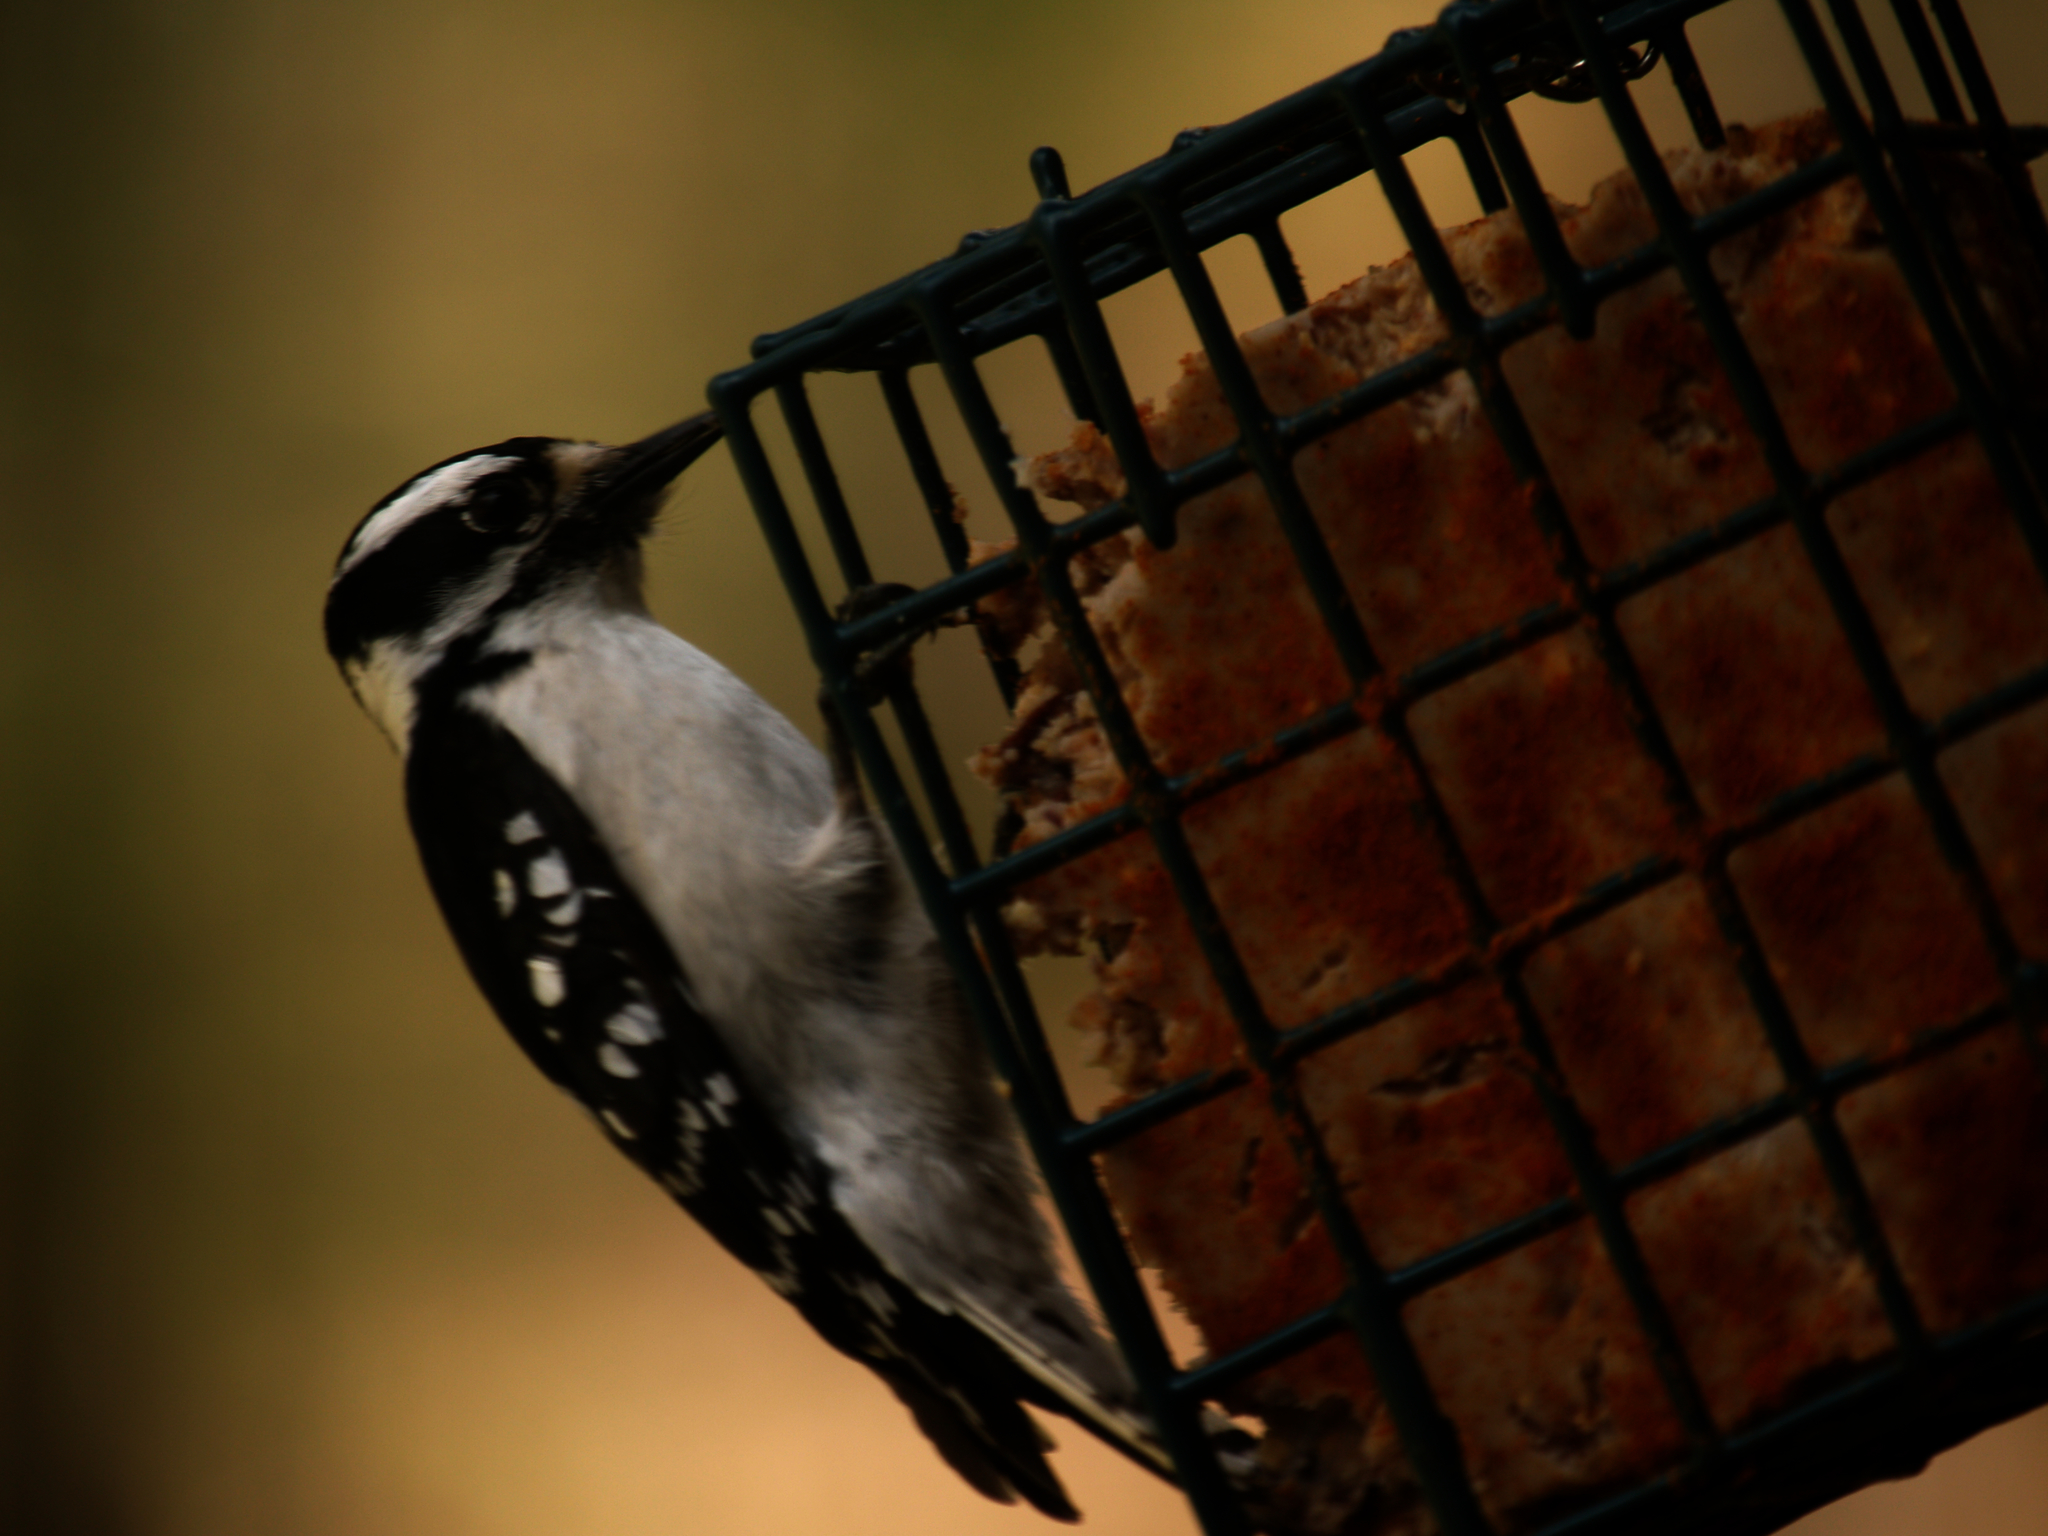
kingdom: Animalia
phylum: Chordata
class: Aves
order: Piciformes
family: Picidae
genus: Dryobates
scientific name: Dryobates pubescens
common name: Downy woodpecker
